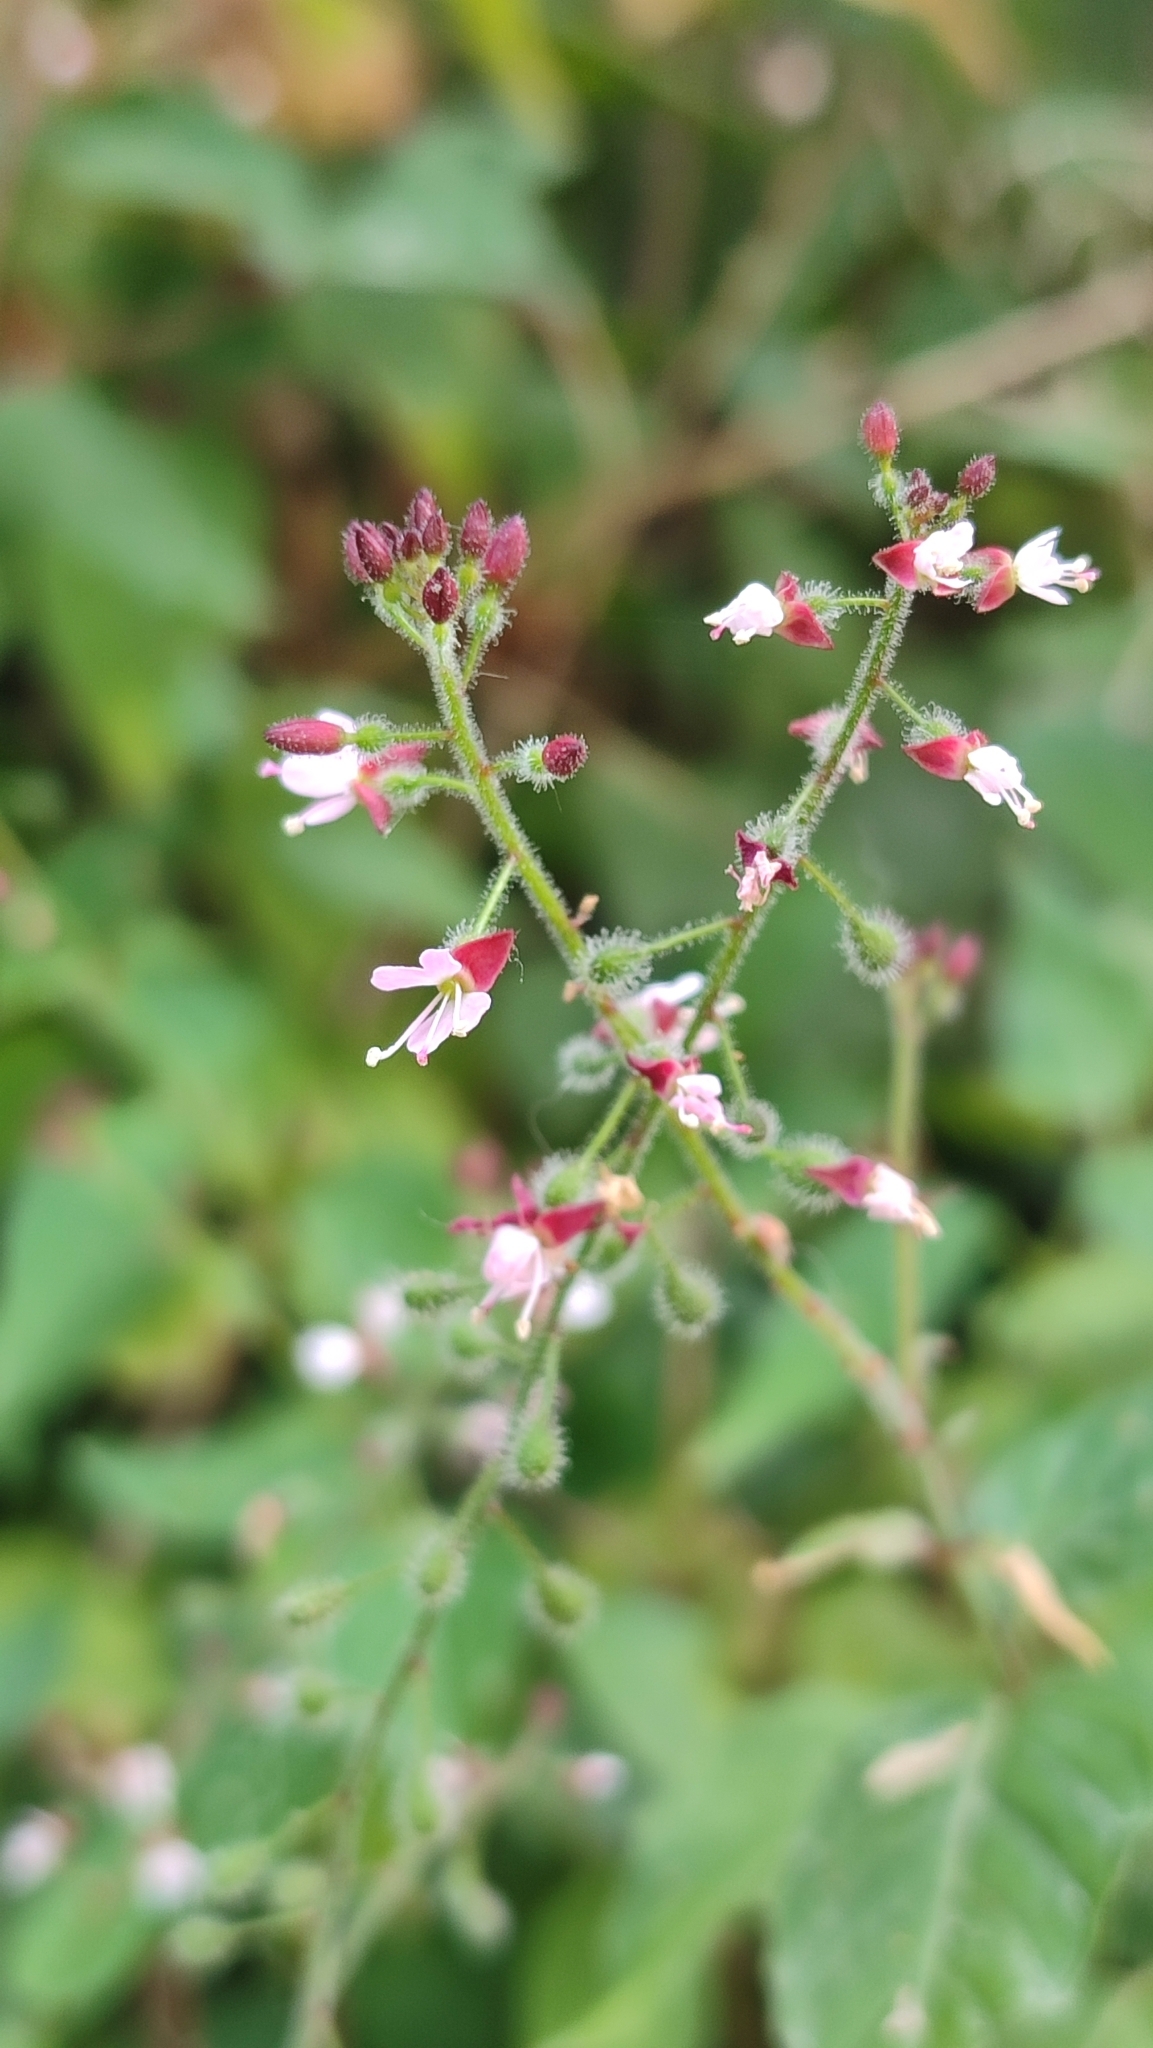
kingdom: Plantae
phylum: Tracheophyta
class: Magnoliopsida
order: Myrtales
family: Onagraceae
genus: Circaea
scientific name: Circaea lutetiana
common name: Enchanter's-nightshade
